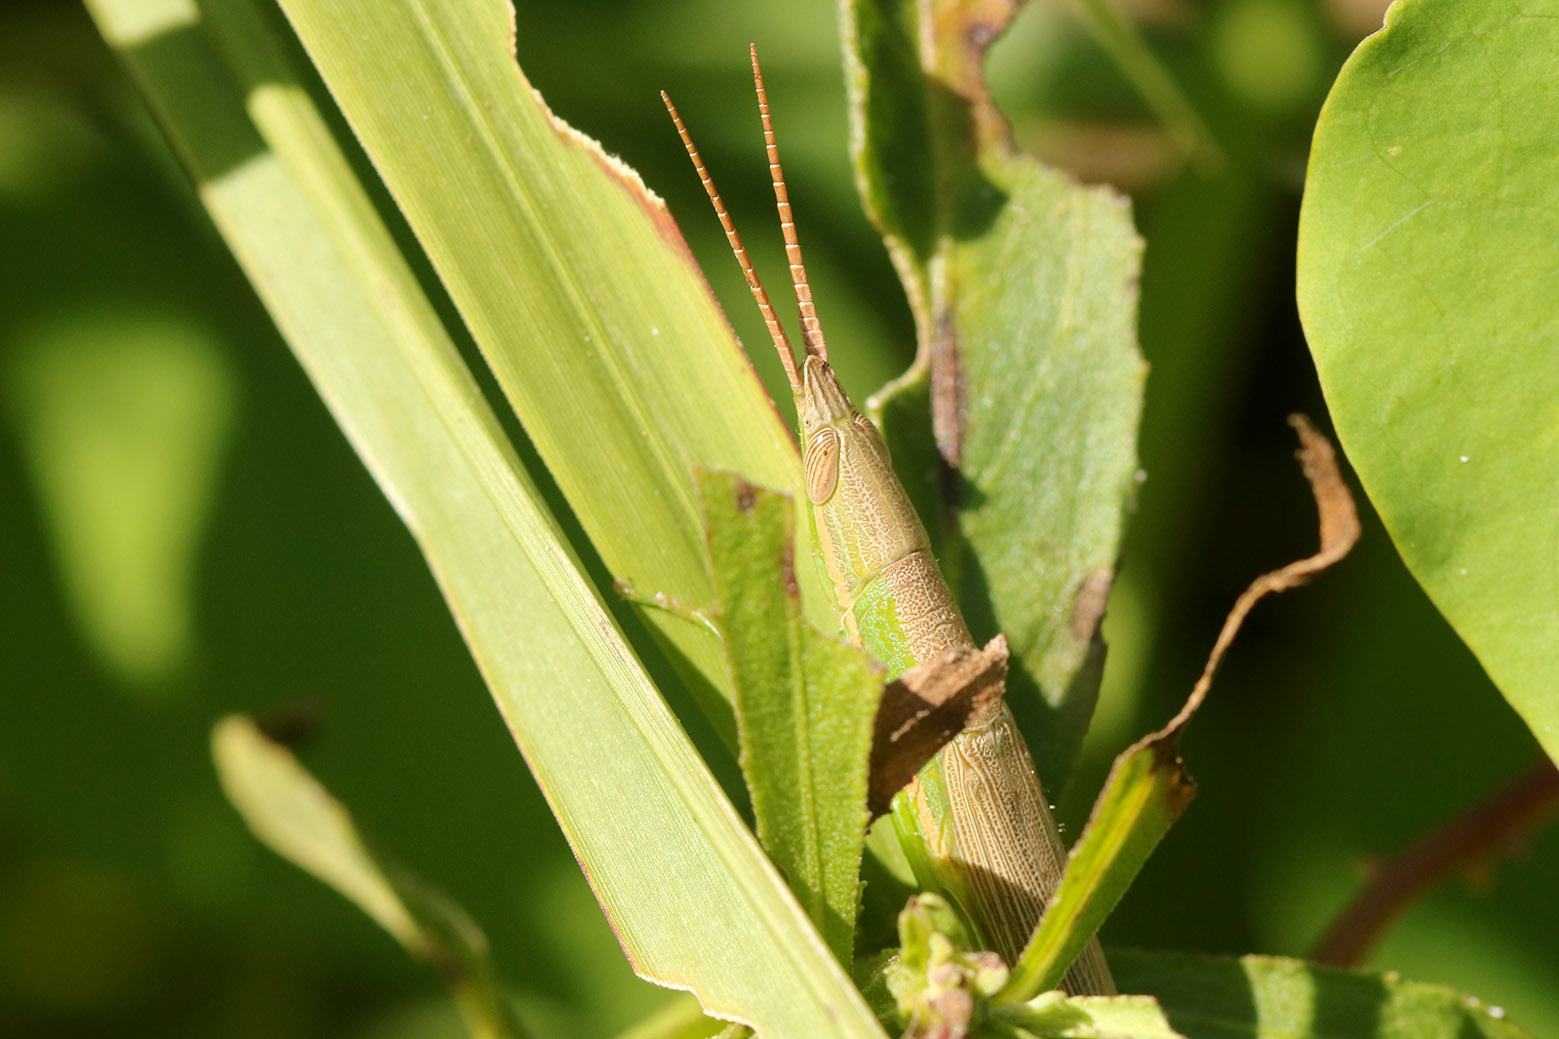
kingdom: Animalia
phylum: Arthropoda
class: Insecta
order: Orthoptera
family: Acrididae
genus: Leptysmina
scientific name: Leptysmina pallida
